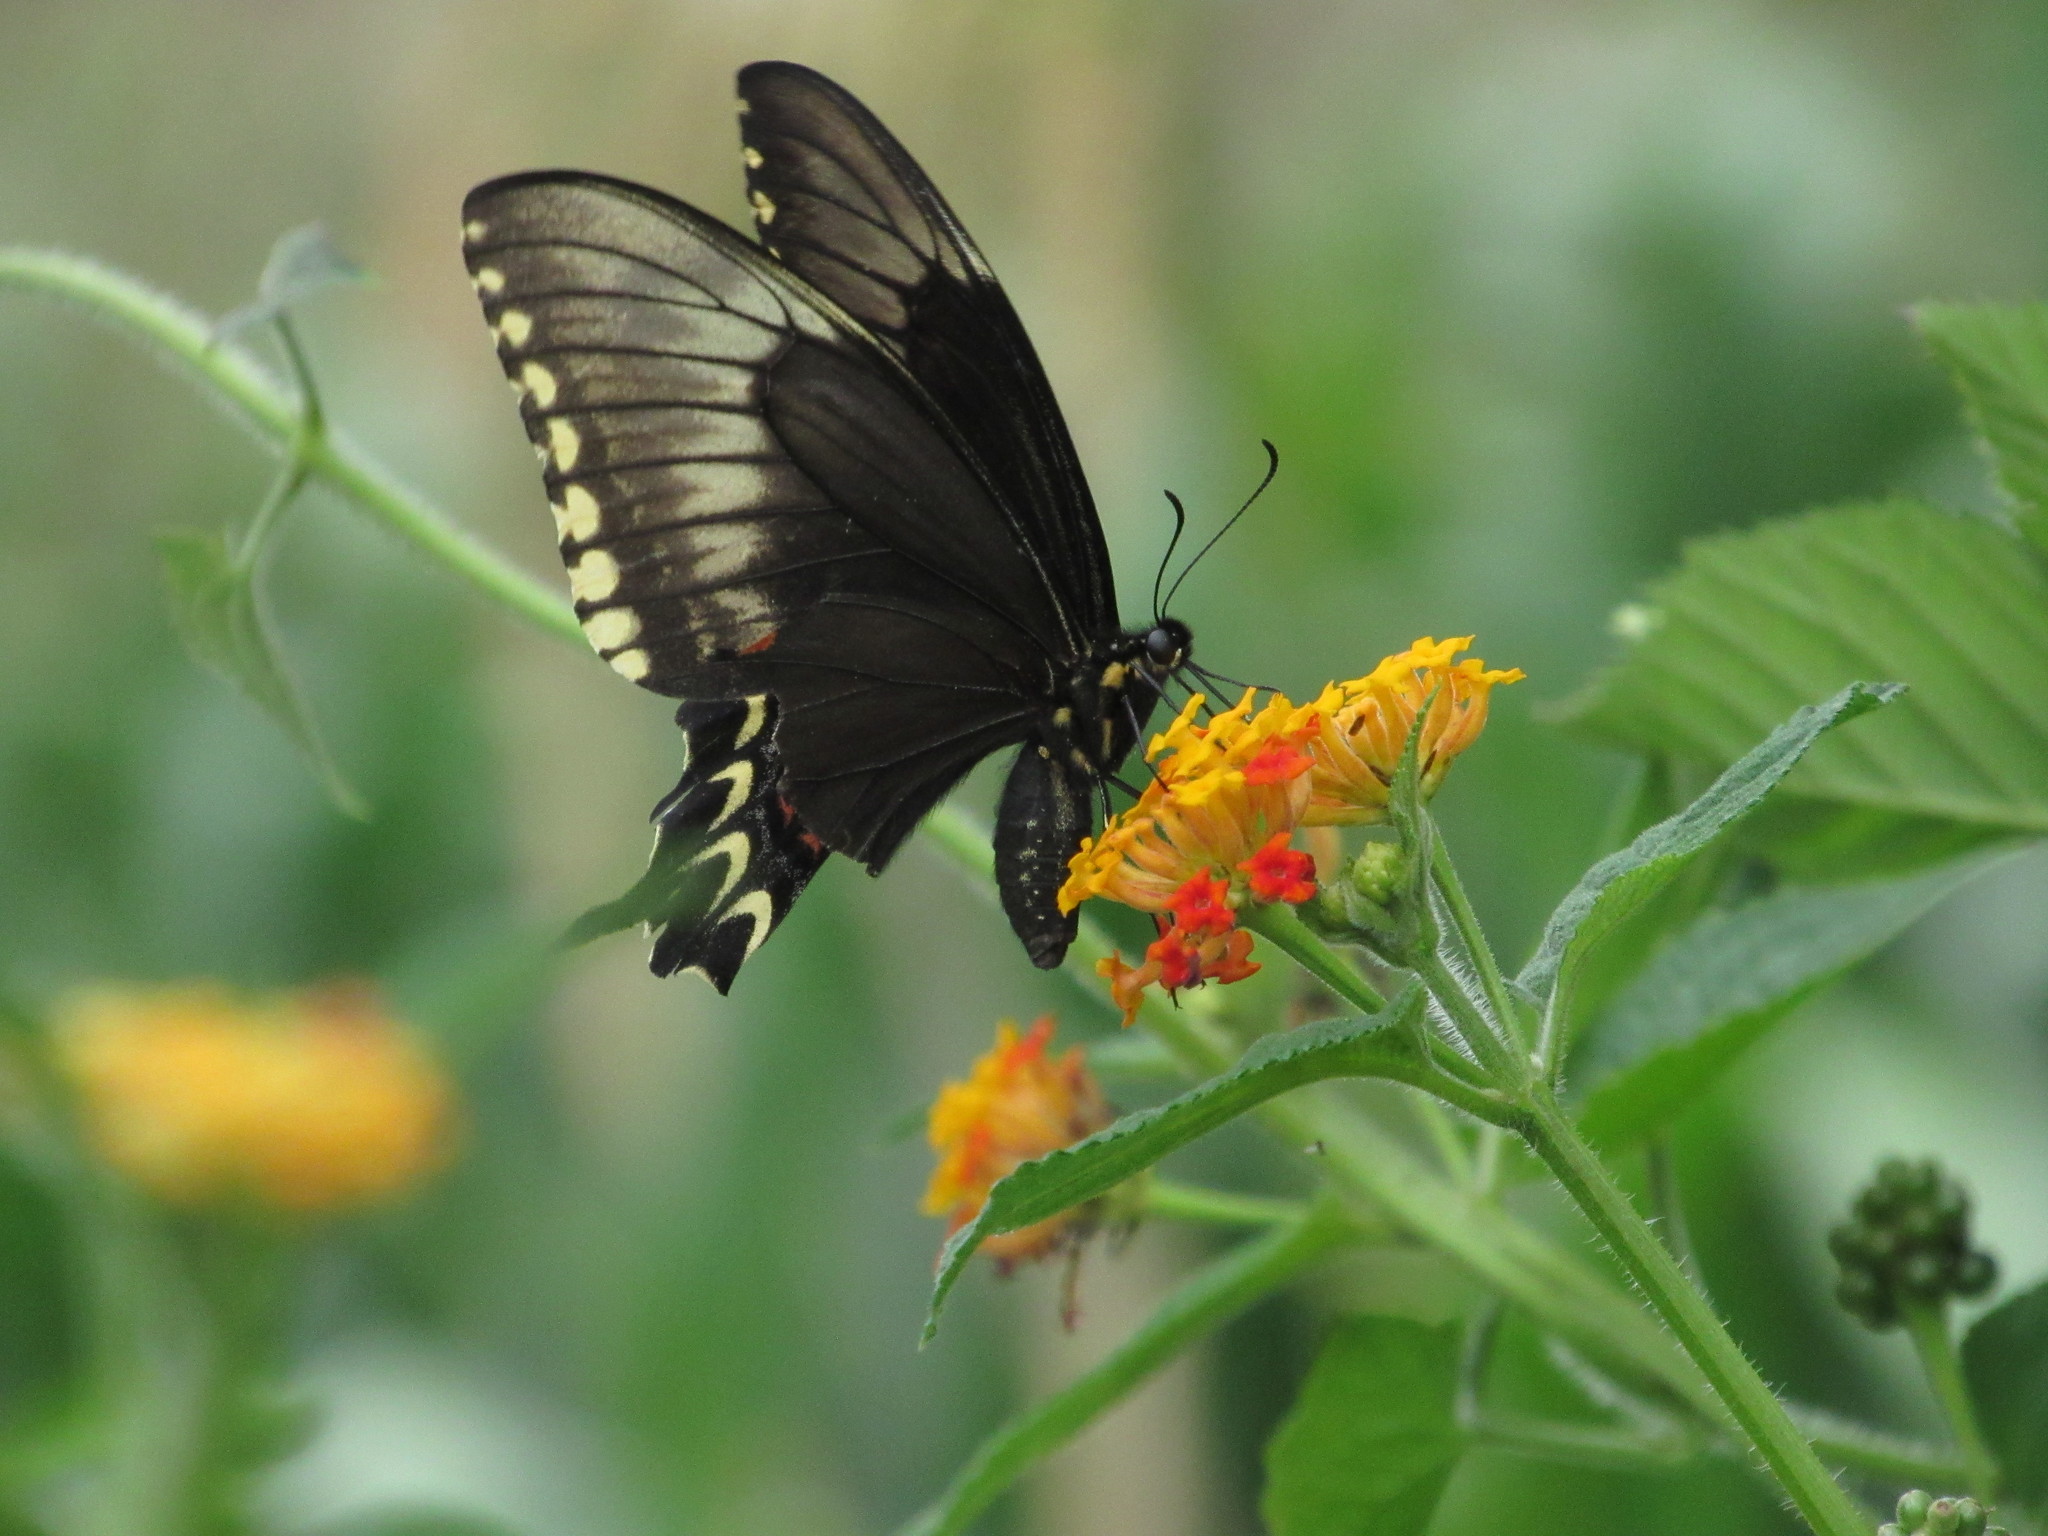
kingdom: Animalia
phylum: Arthropoda
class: Insecta
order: Lepidoptera
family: Papilionidae
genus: Papilio
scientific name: Papilio astyalus
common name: Astyalus swallowtail
